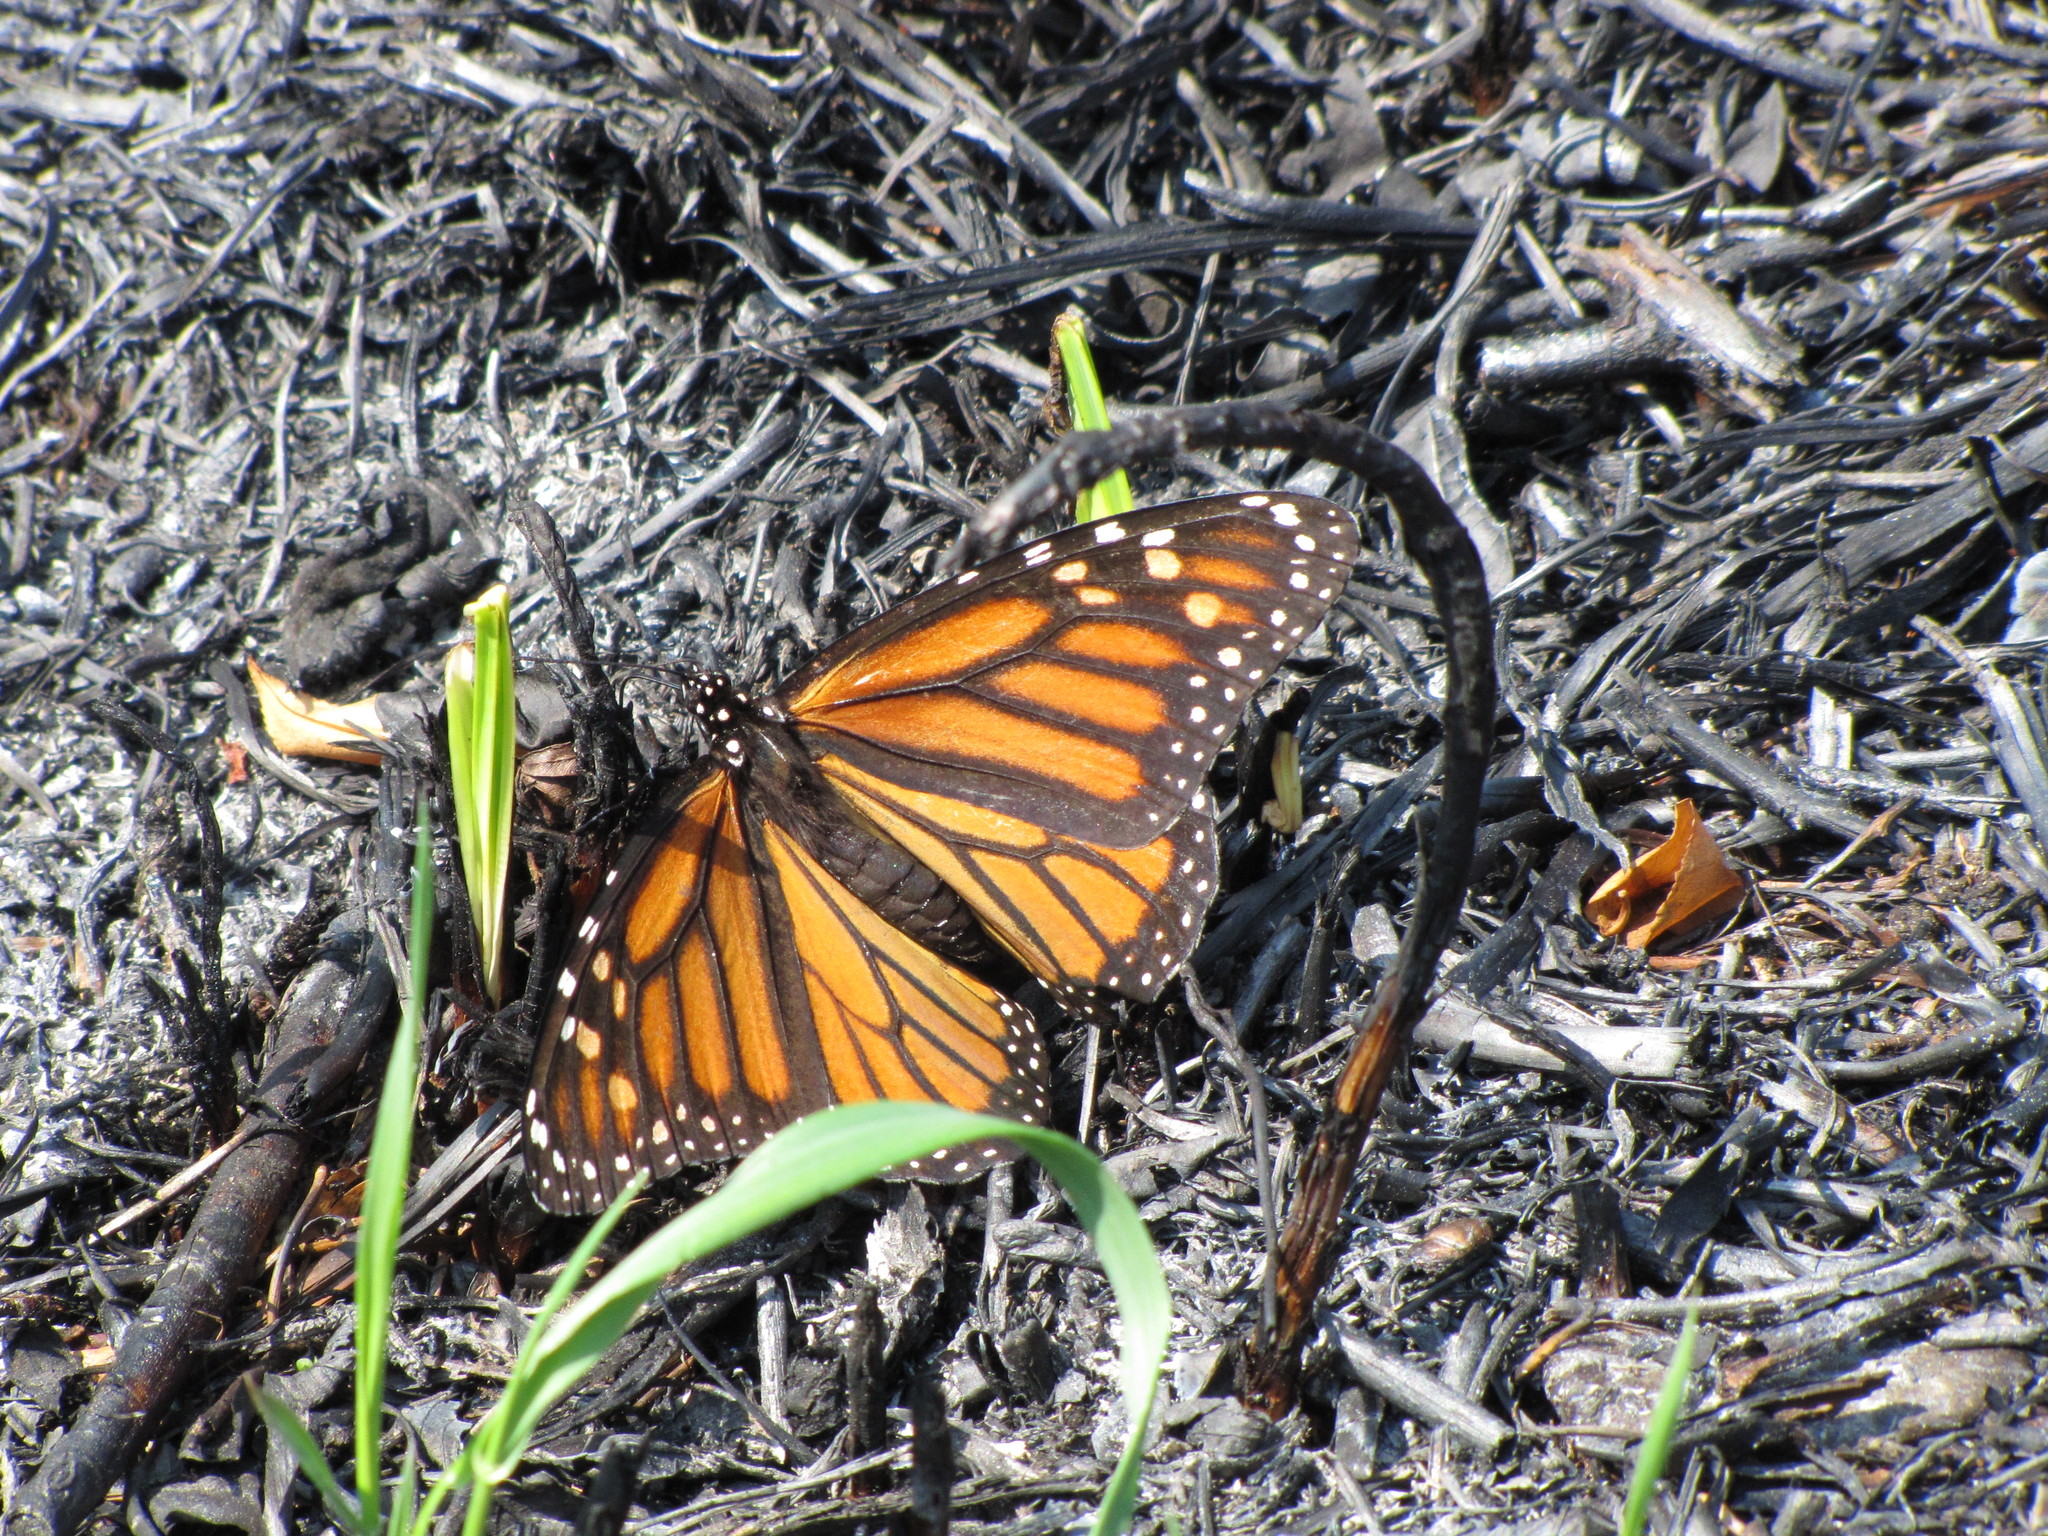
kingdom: Animalia
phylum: Arthropoda
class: Insecta
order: Lepidoptera
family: Nymphalidae
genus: Danaus
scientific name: Danaus plexippus
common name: Monarch
